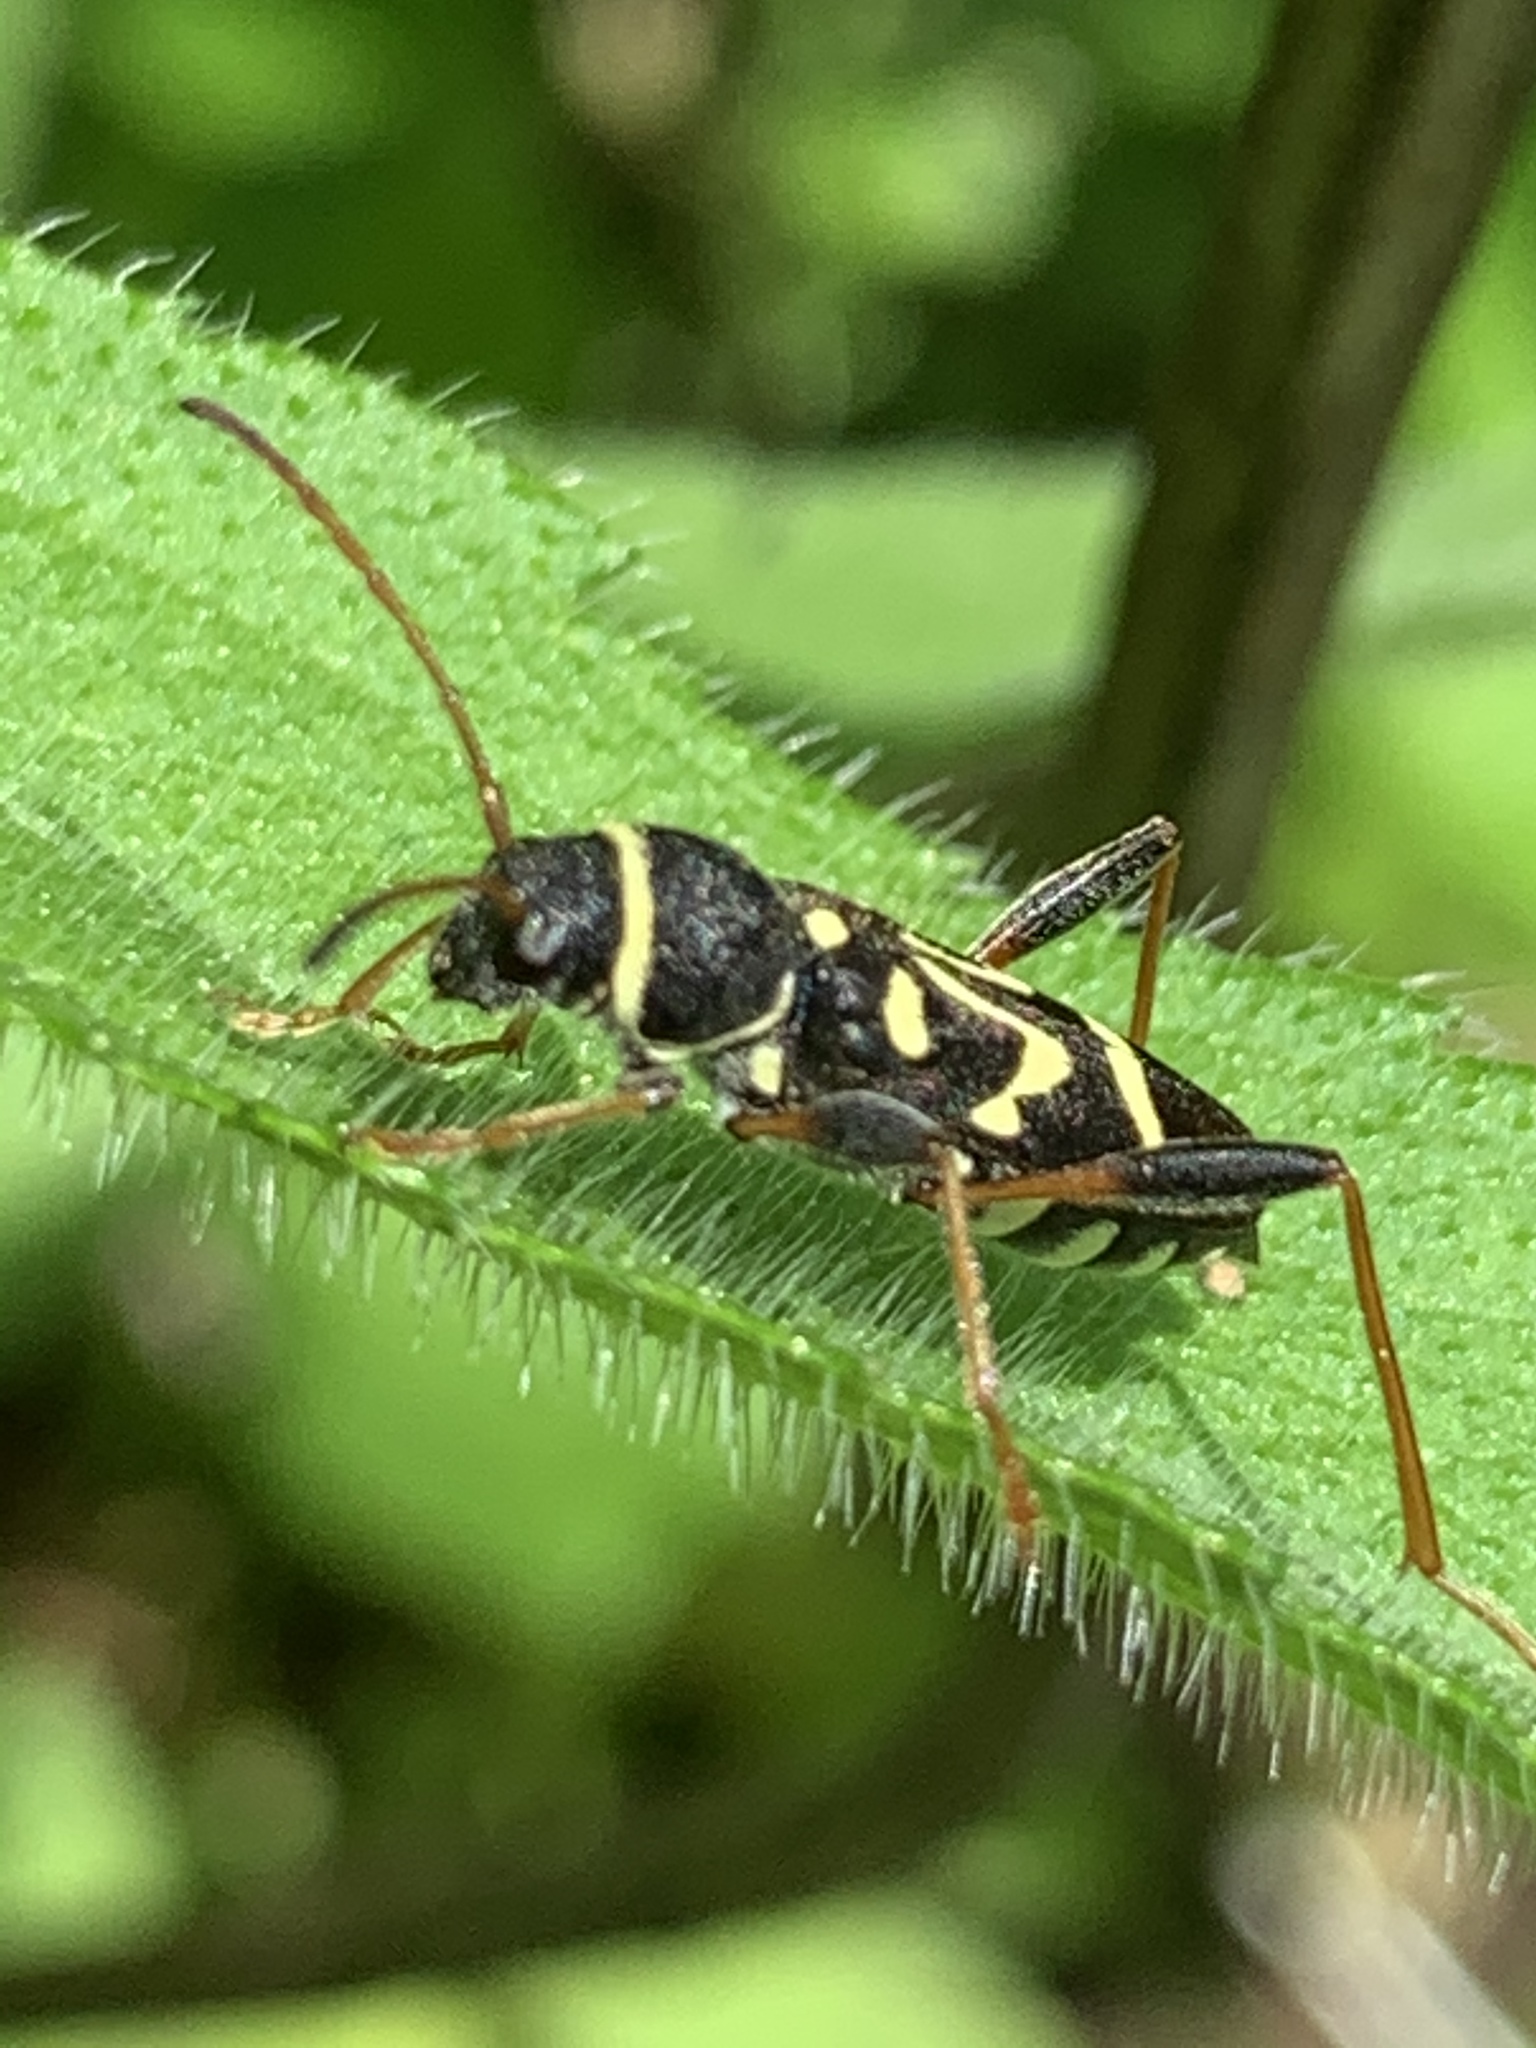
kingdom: Animalia
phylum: Arthropoda
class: Insecta
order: Coleoptera
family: Cerambycidae
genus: Clytus
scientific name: Clytus ruricola
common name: Round-necked longhorn beetle
